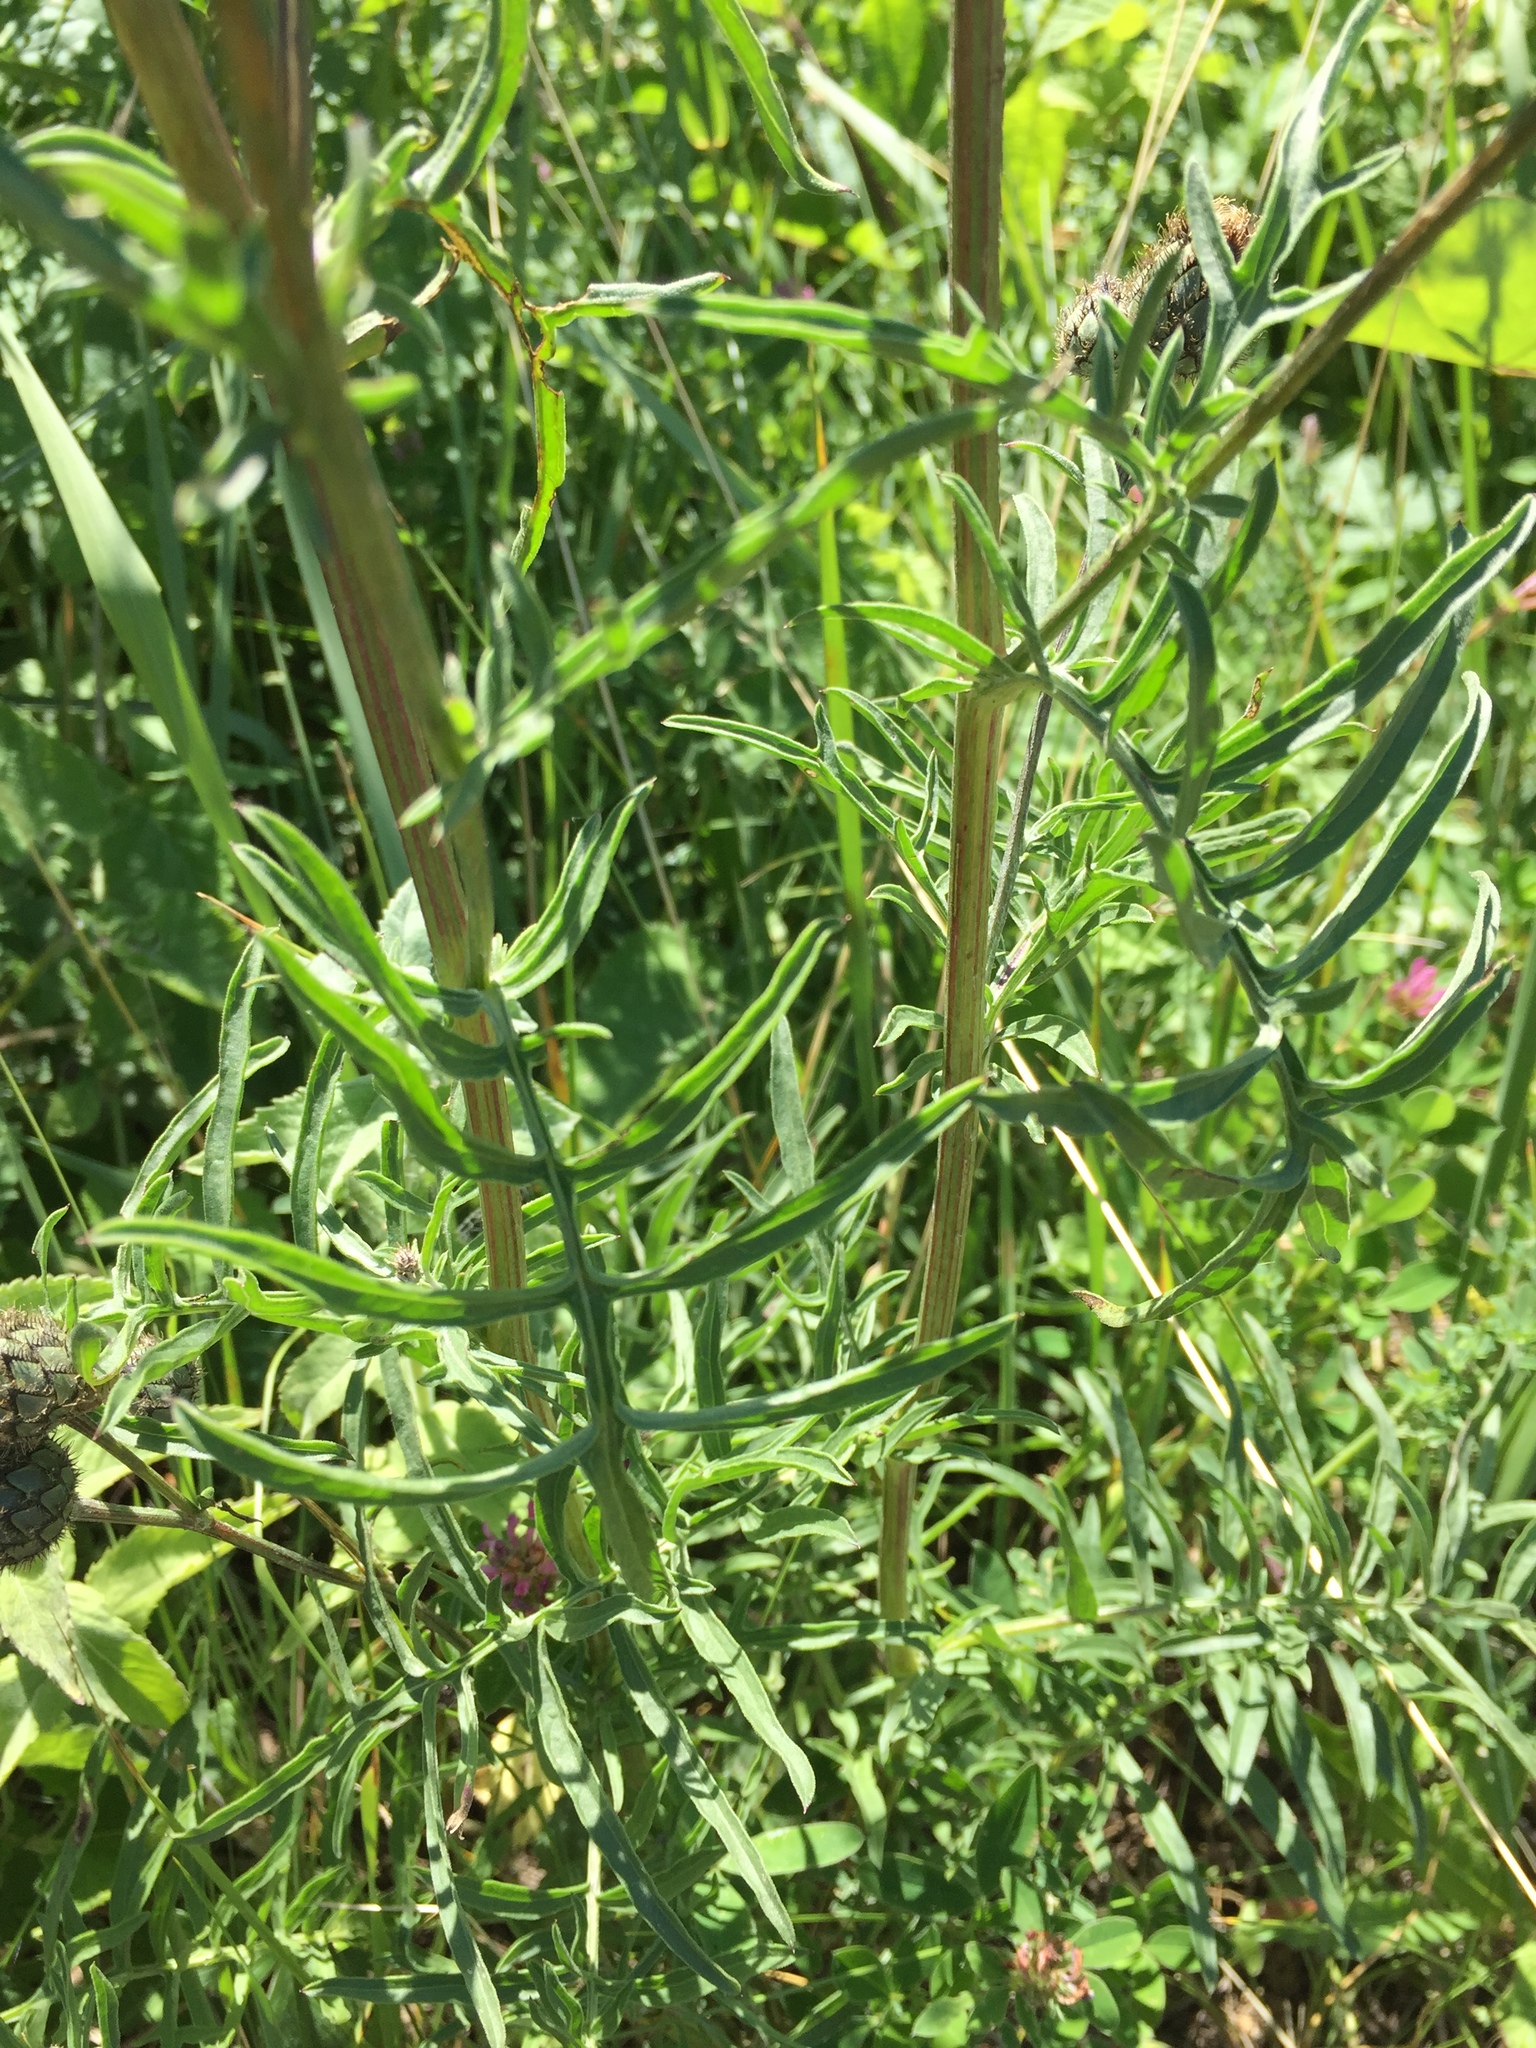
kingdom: Plantae
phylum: Tracheophyta
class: Magnoliopsida
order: Asterales
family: Asteraceae
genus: Centaurea
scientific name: Centaurea scabiosa
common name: Greater knapweed
